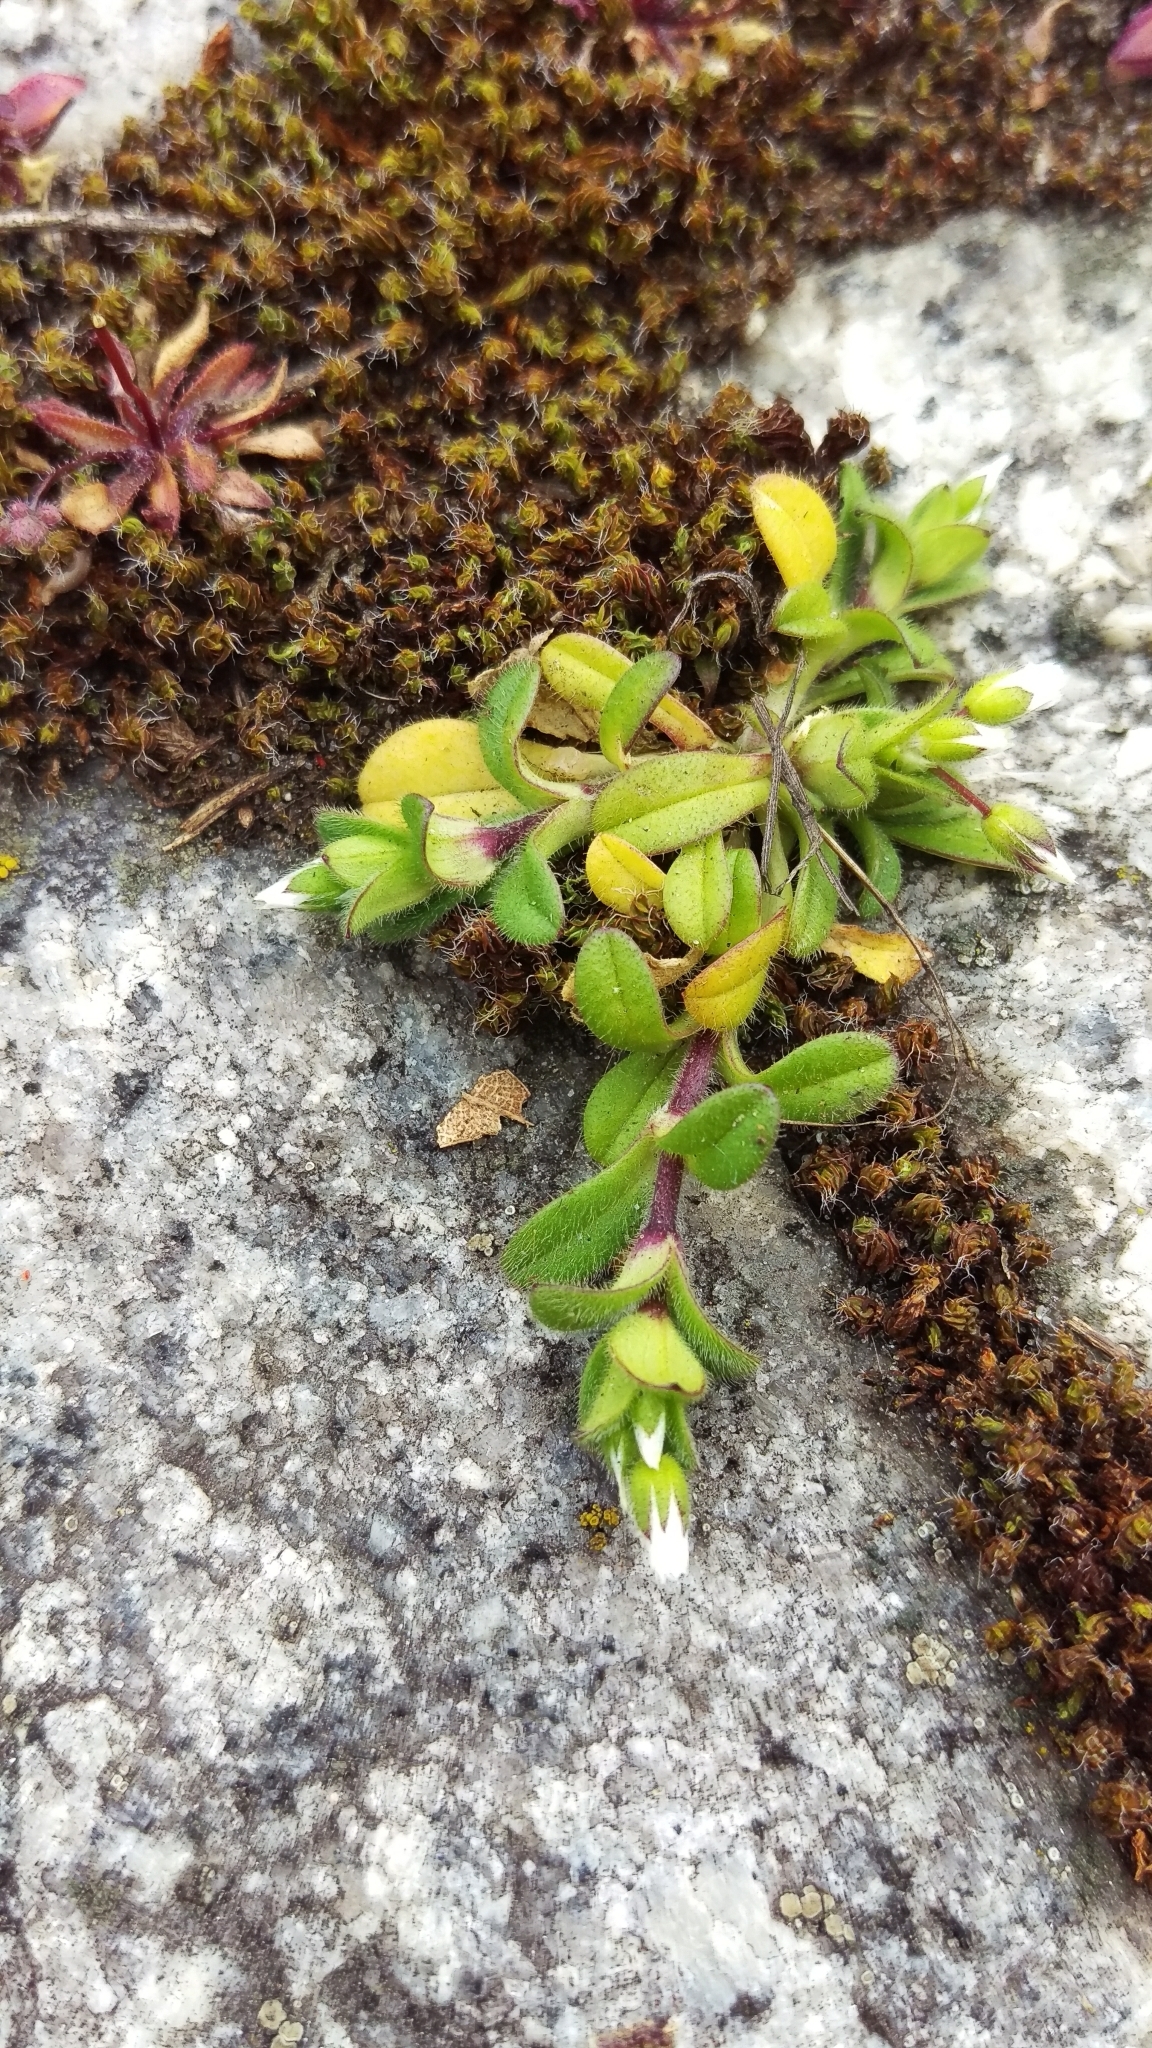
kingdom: Plantae
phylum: Bryophyta
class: Bryopsida
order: Orthotrichales
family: Orthotrichaceae
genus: Orthotrichum
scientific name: Orthotrichum diaphanum
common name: White-tipped bristle-moss
